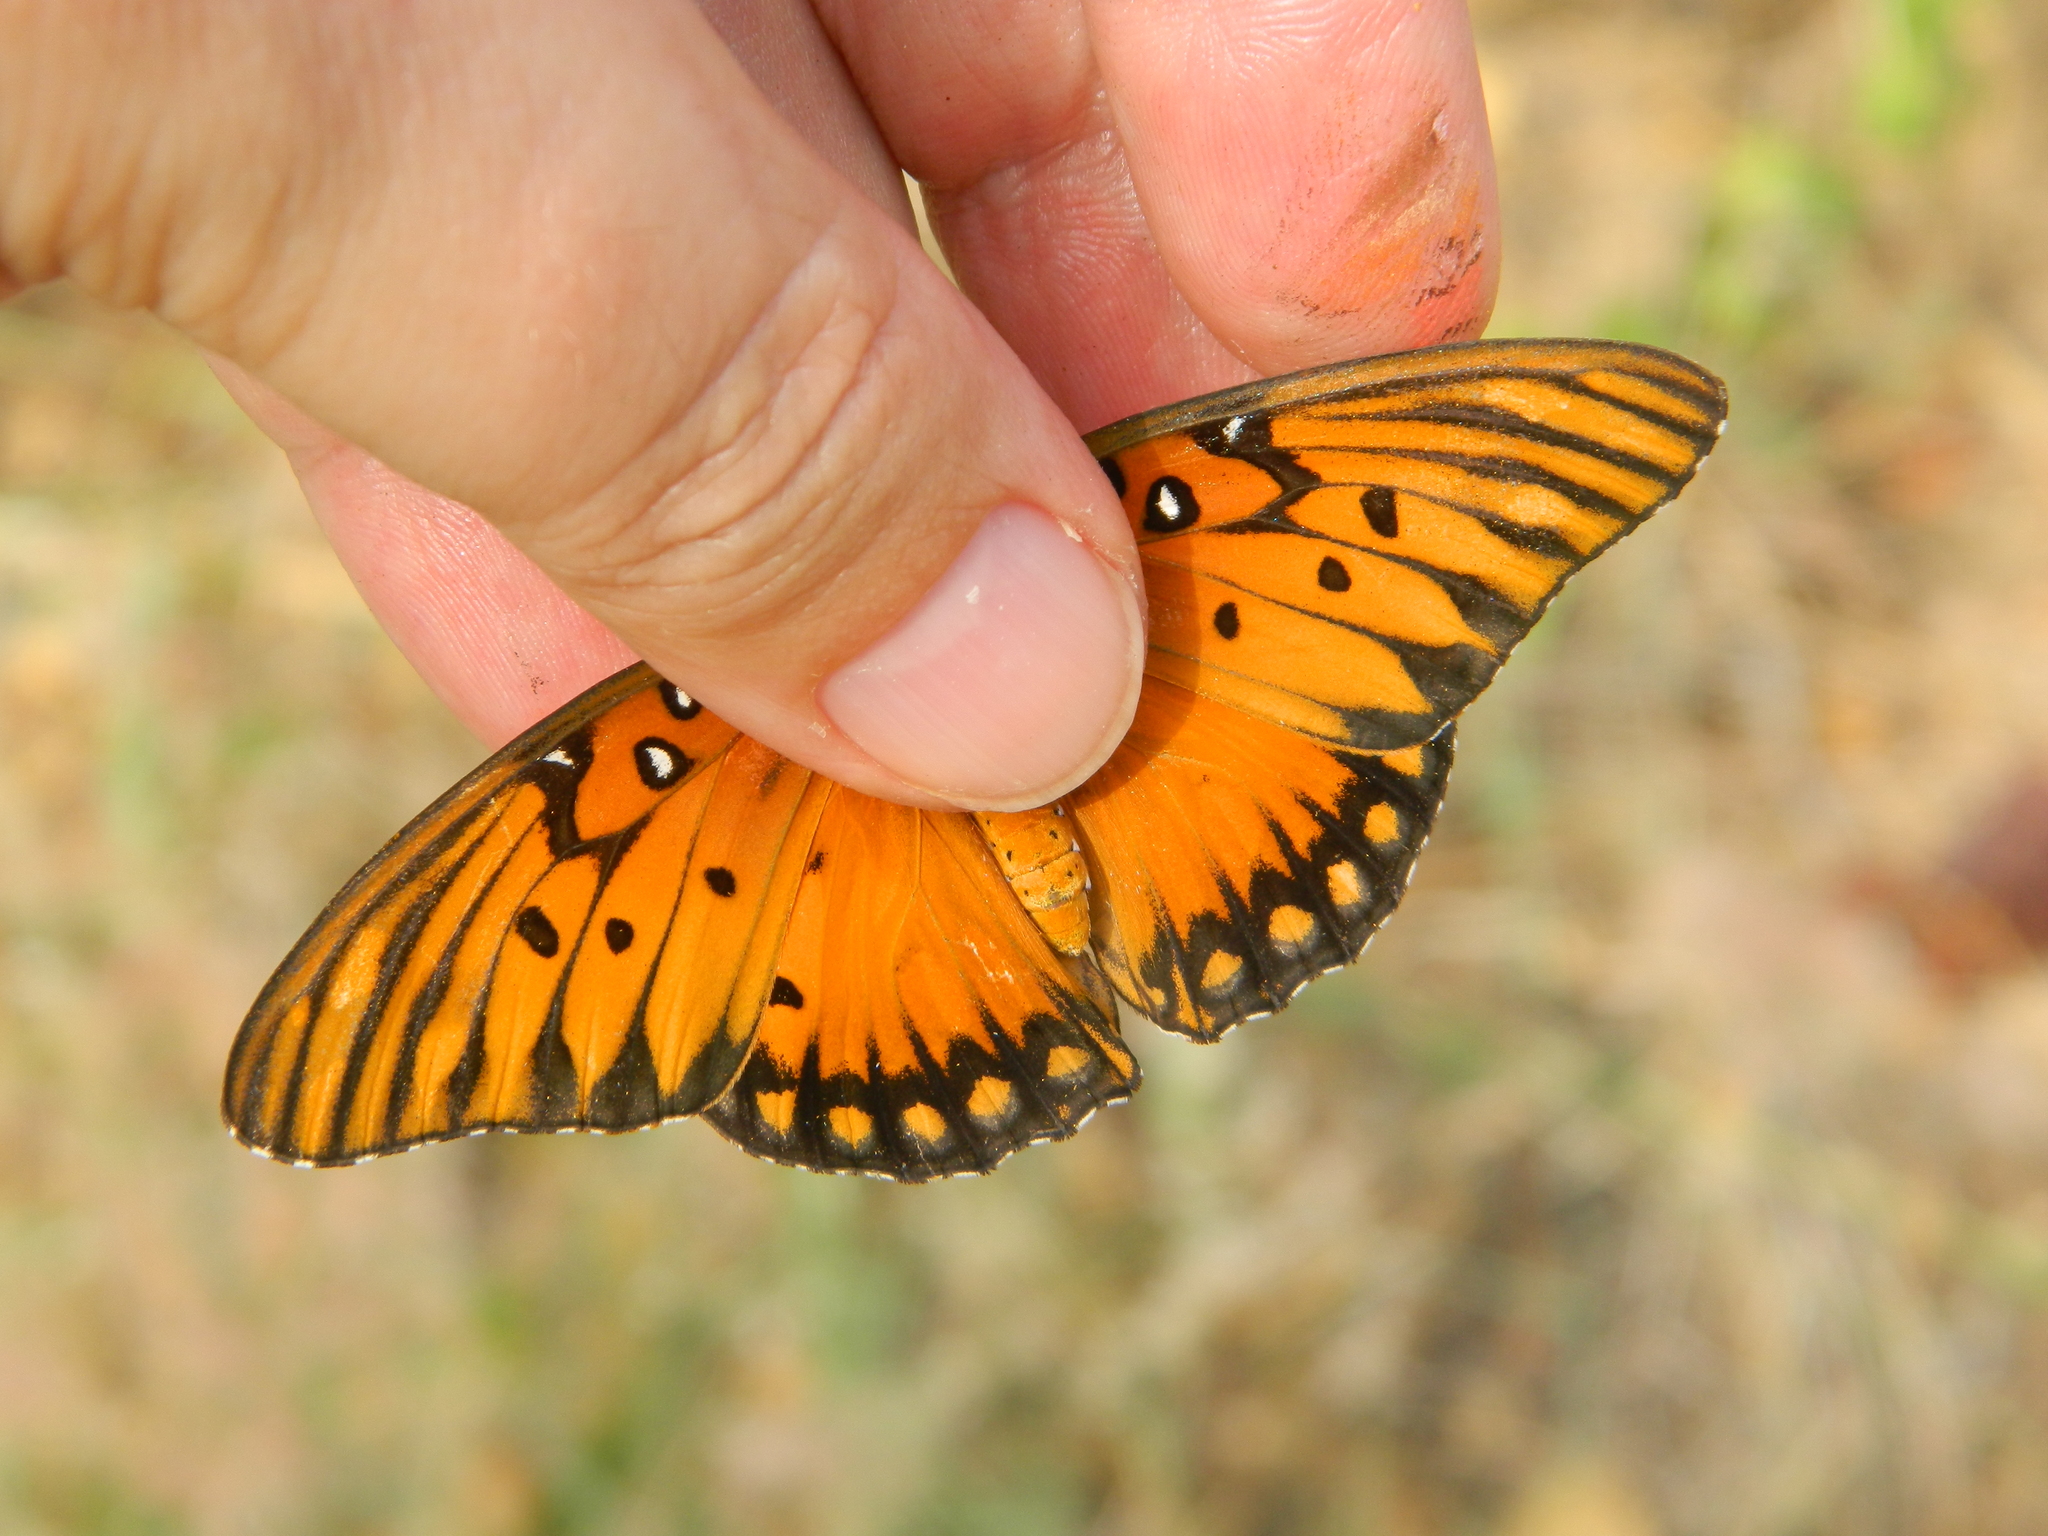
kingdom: Animalia
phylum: Arthropoda
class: Insecta
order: Lepidoptera
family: Nymphalidae
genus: Dione
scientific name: Dione vanillae
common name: Gulf fritillary
